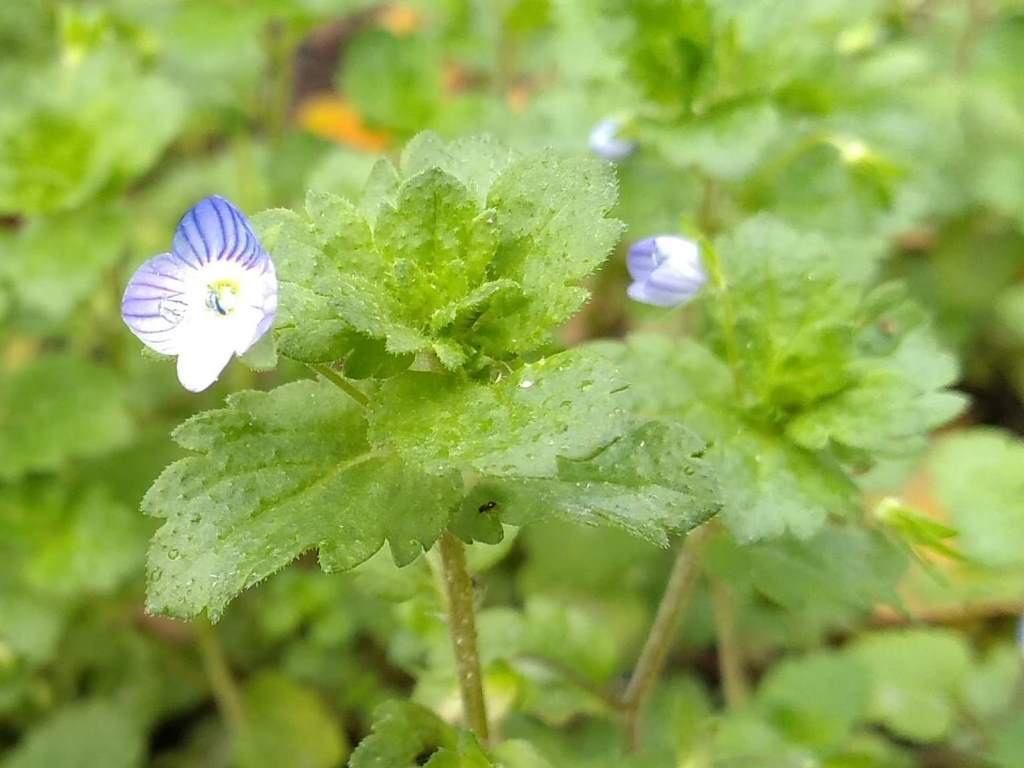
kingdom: Plantae
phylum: Tracheophyta
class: Magnoliopsida
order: Lamiales
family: Plantaginaceae
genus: Veronica
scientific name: Veronica persica
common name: Common field-speedwell
